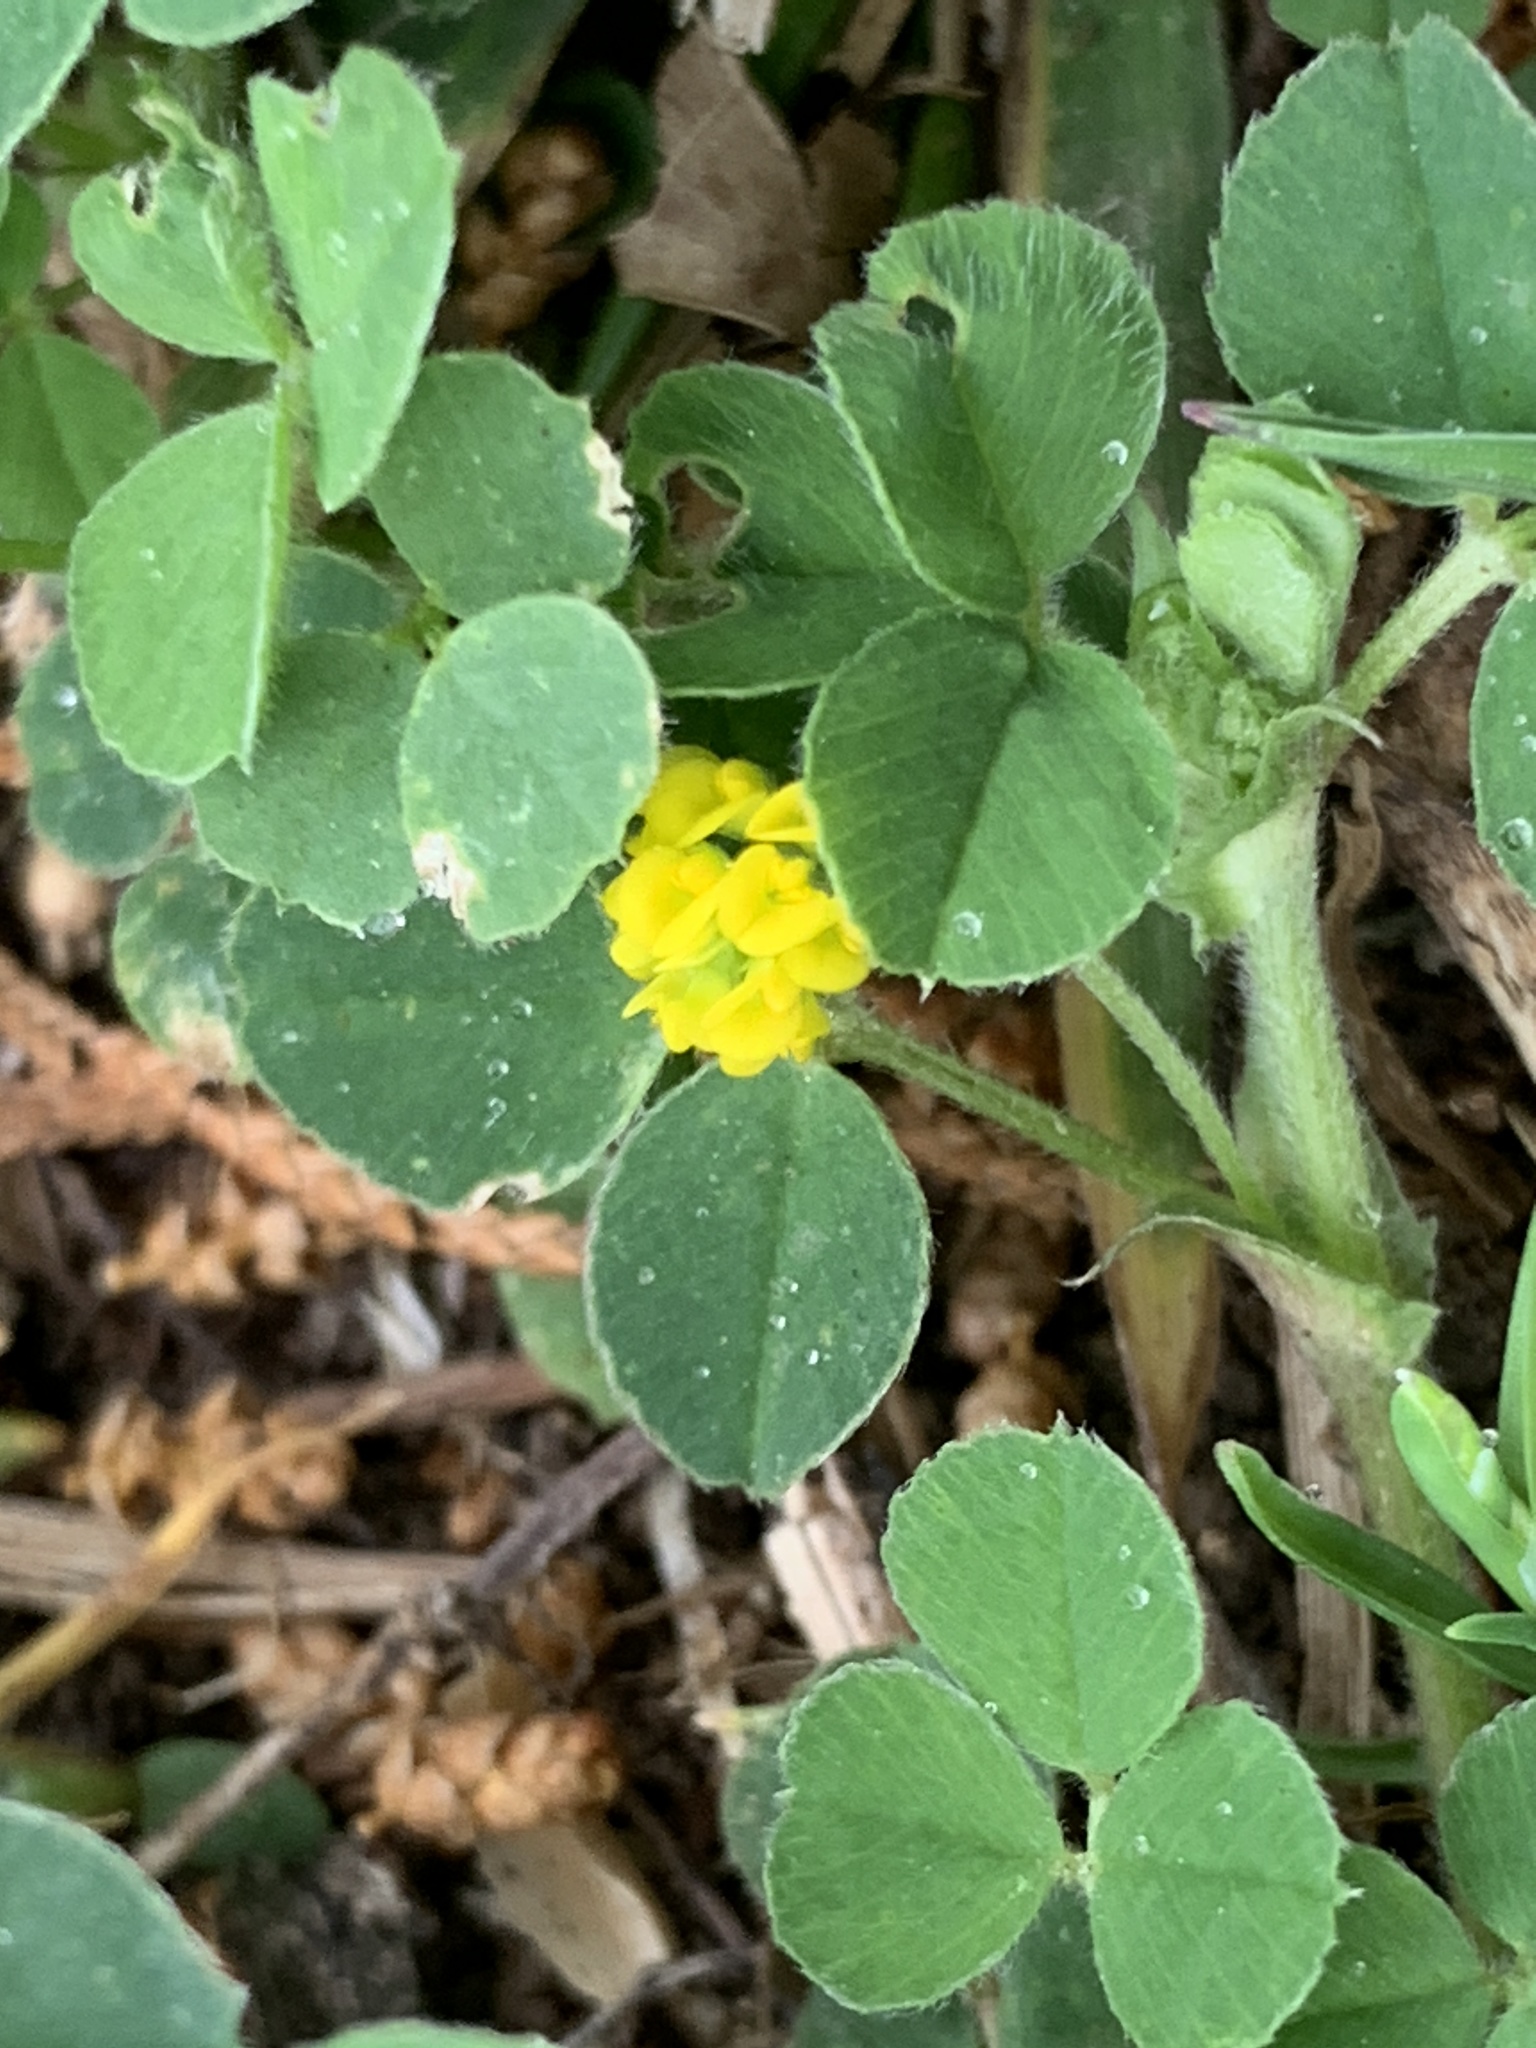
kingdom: Plantae
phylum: Tracheophyta
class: Magnoliopsida
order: Fabales
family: Fabaceae
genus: Medicago
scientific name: Medicago lupulina
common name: Black medick
